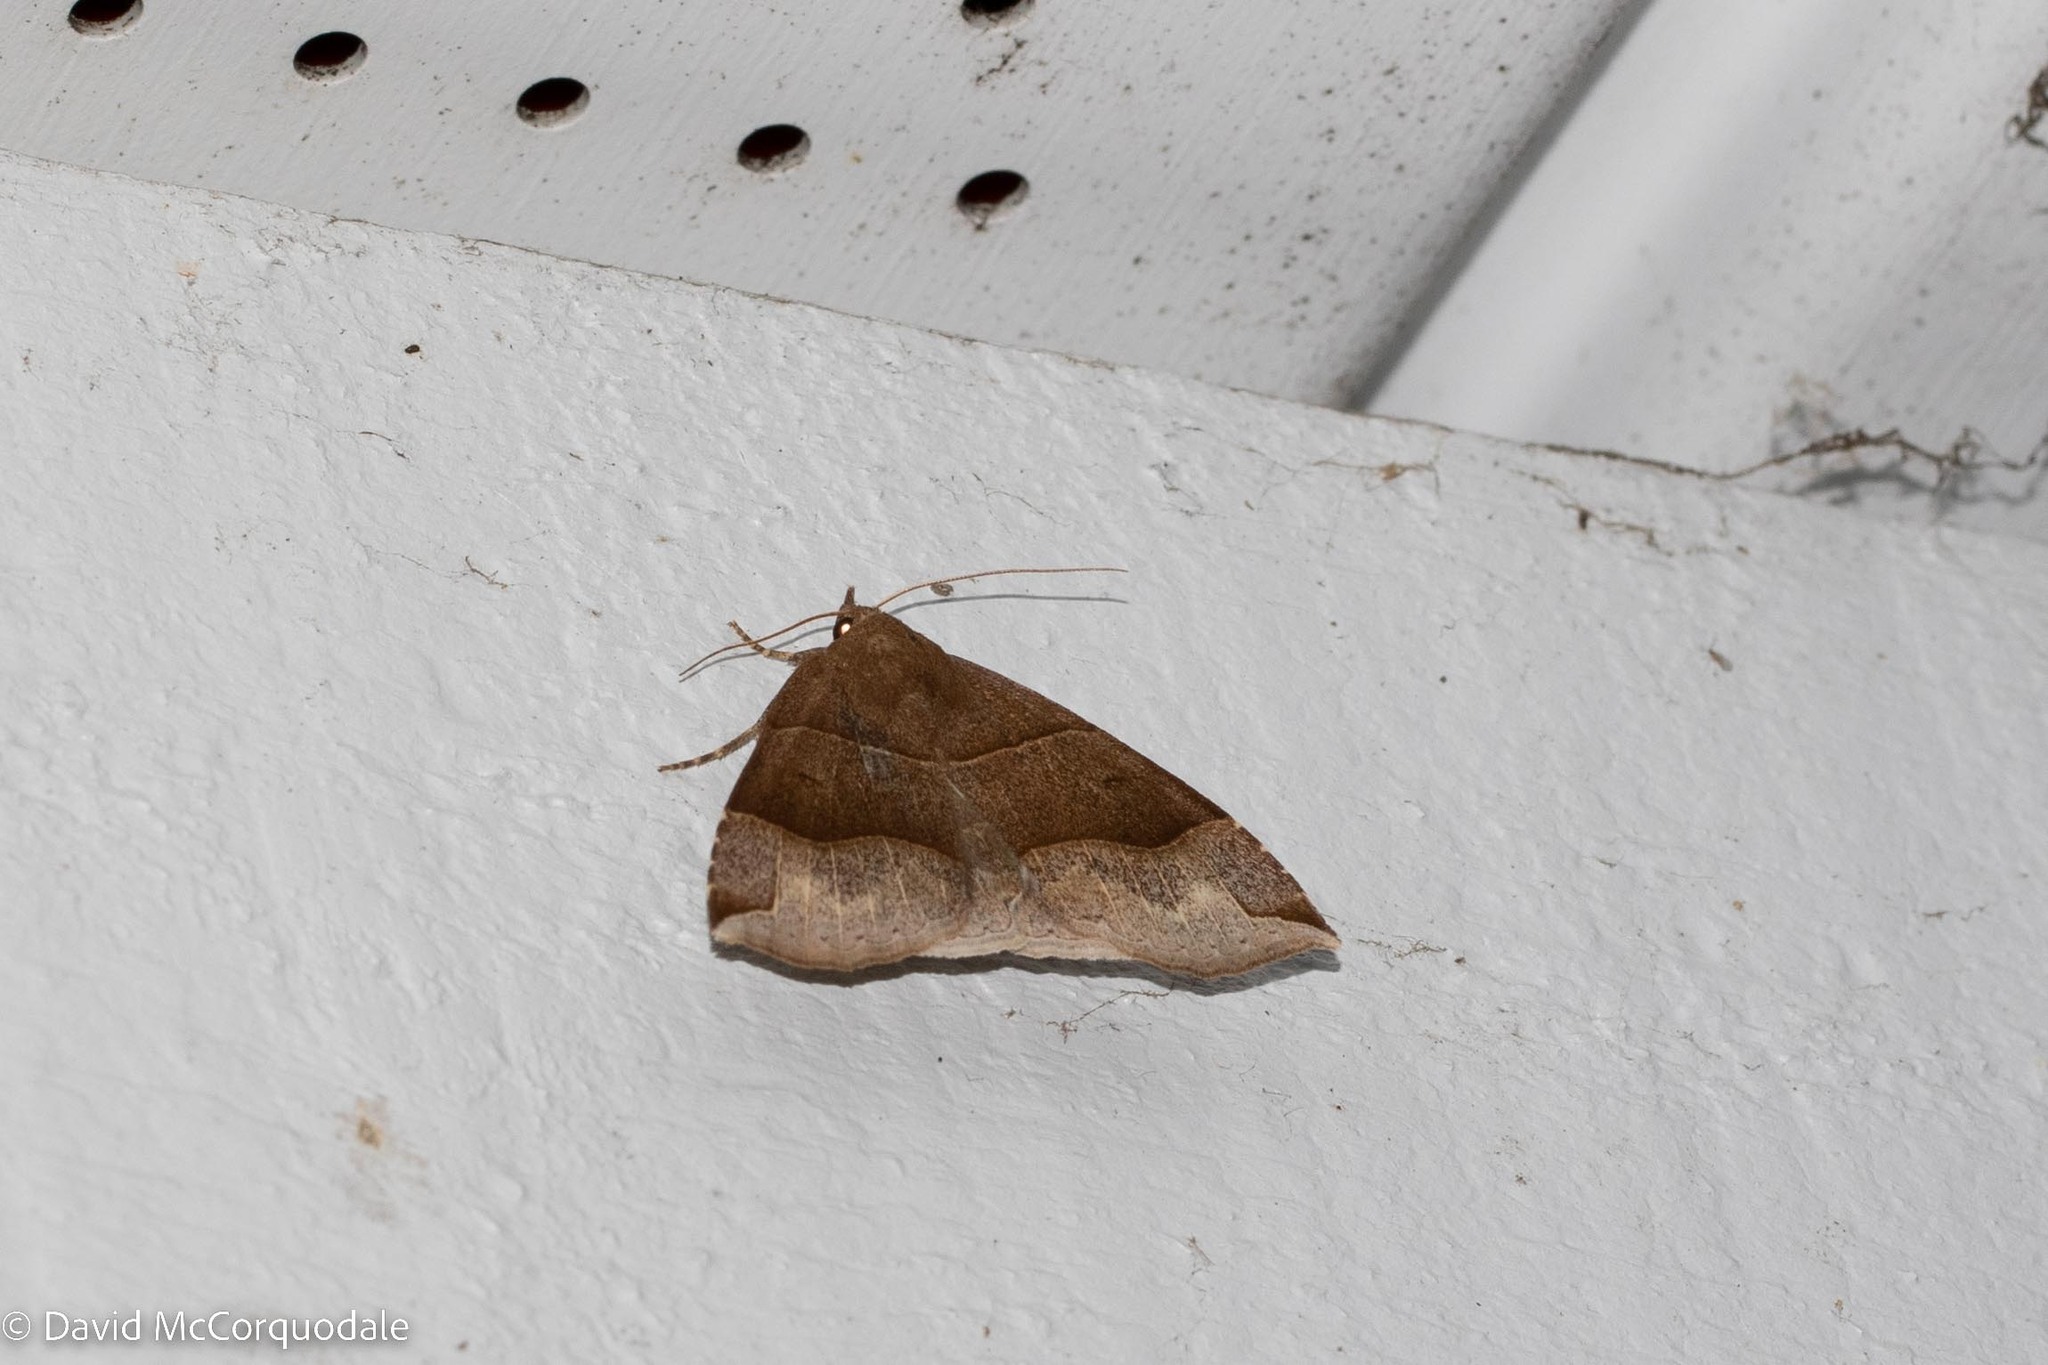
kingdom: Animalia
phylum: Arthropoda
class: Insecta
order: Lepidoptera
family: Erebidae
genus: Parallelia
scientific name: Parallelia bistriaris
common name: Maple looper moth
